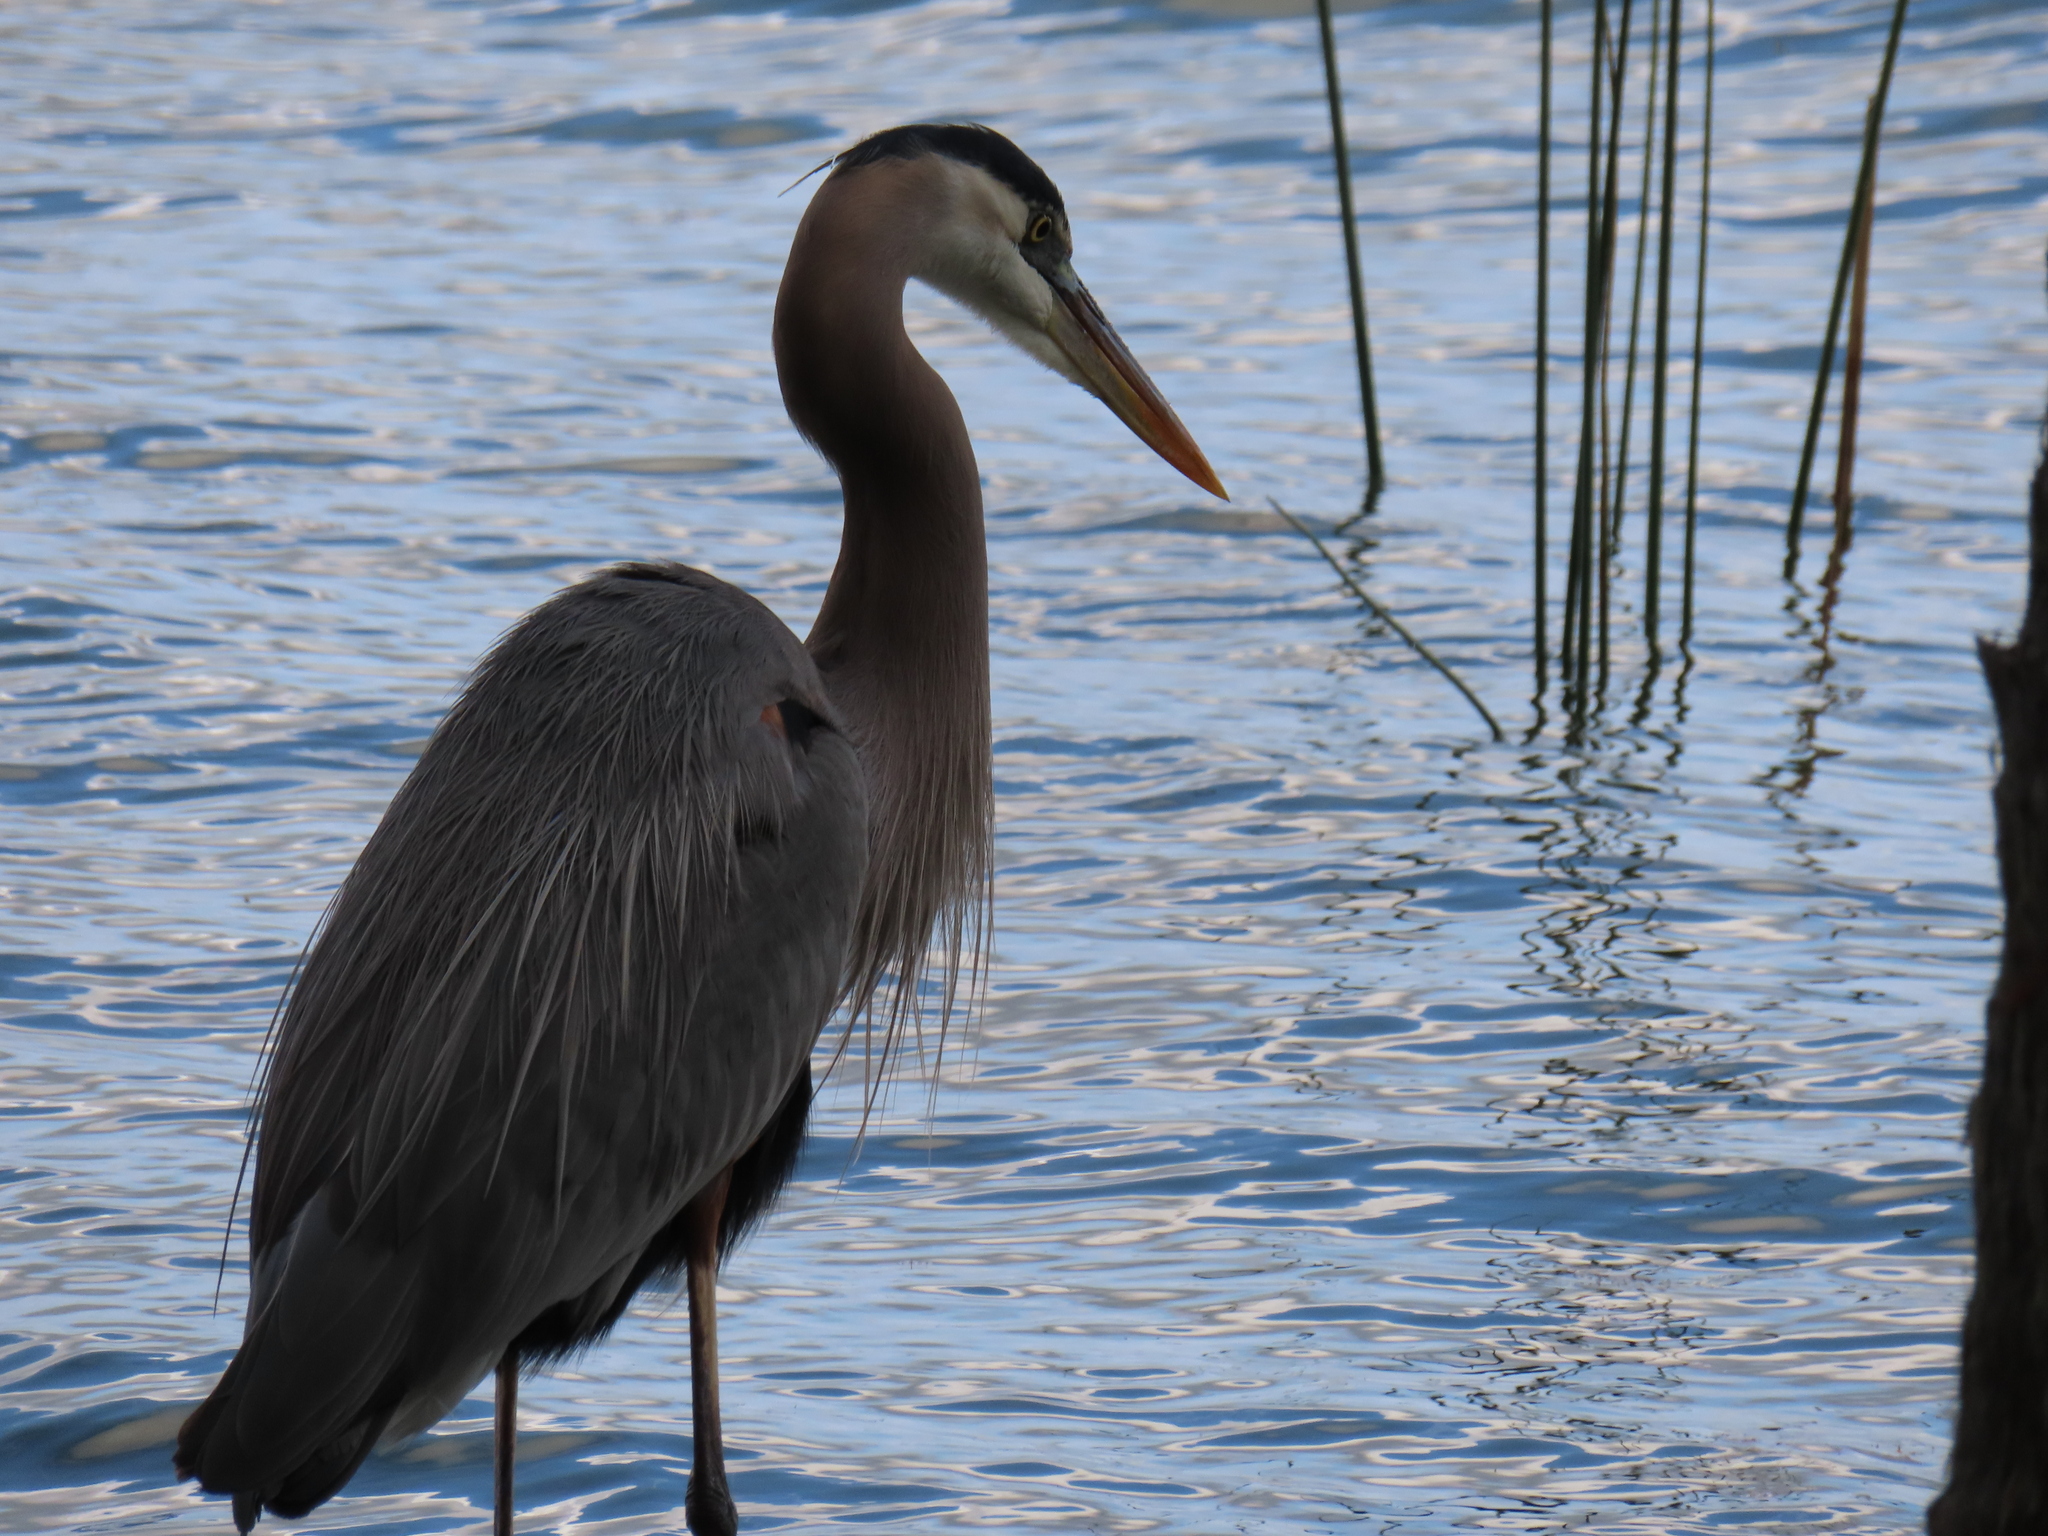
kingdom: Animalia
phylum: Chordata
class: Aves
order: Pelecaniformes
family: Ardeidae
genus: Ardea
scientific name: Ardea herodias
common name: Great blue heron
